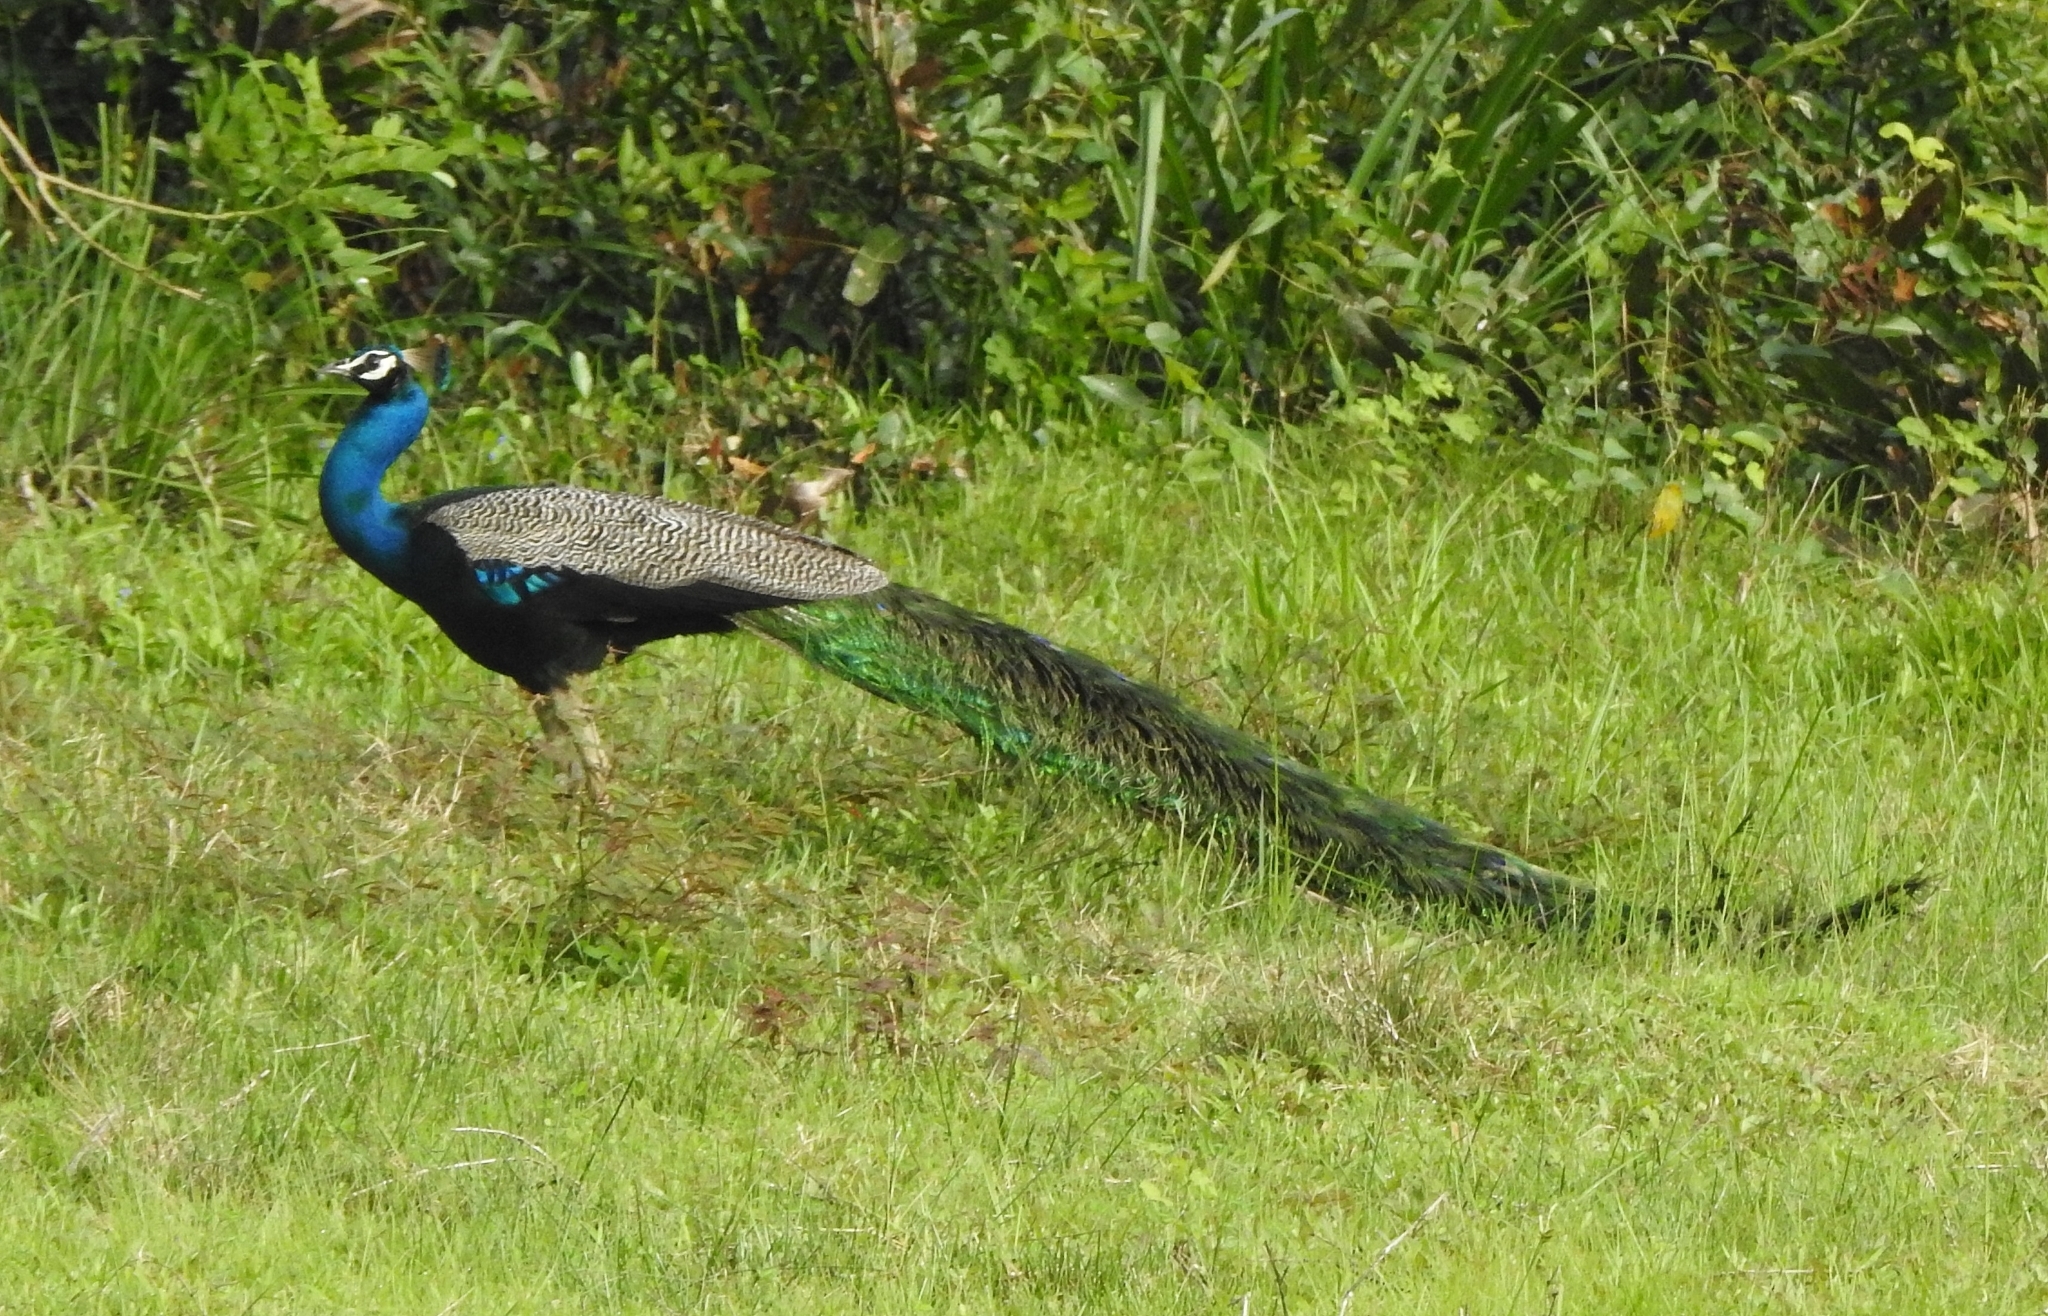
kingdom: Animalia
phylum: Chordata
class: Aves
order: Galliformes
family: Phasianidae
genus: Pavo
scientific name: Pavo cristatus
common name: Indian peafowl
